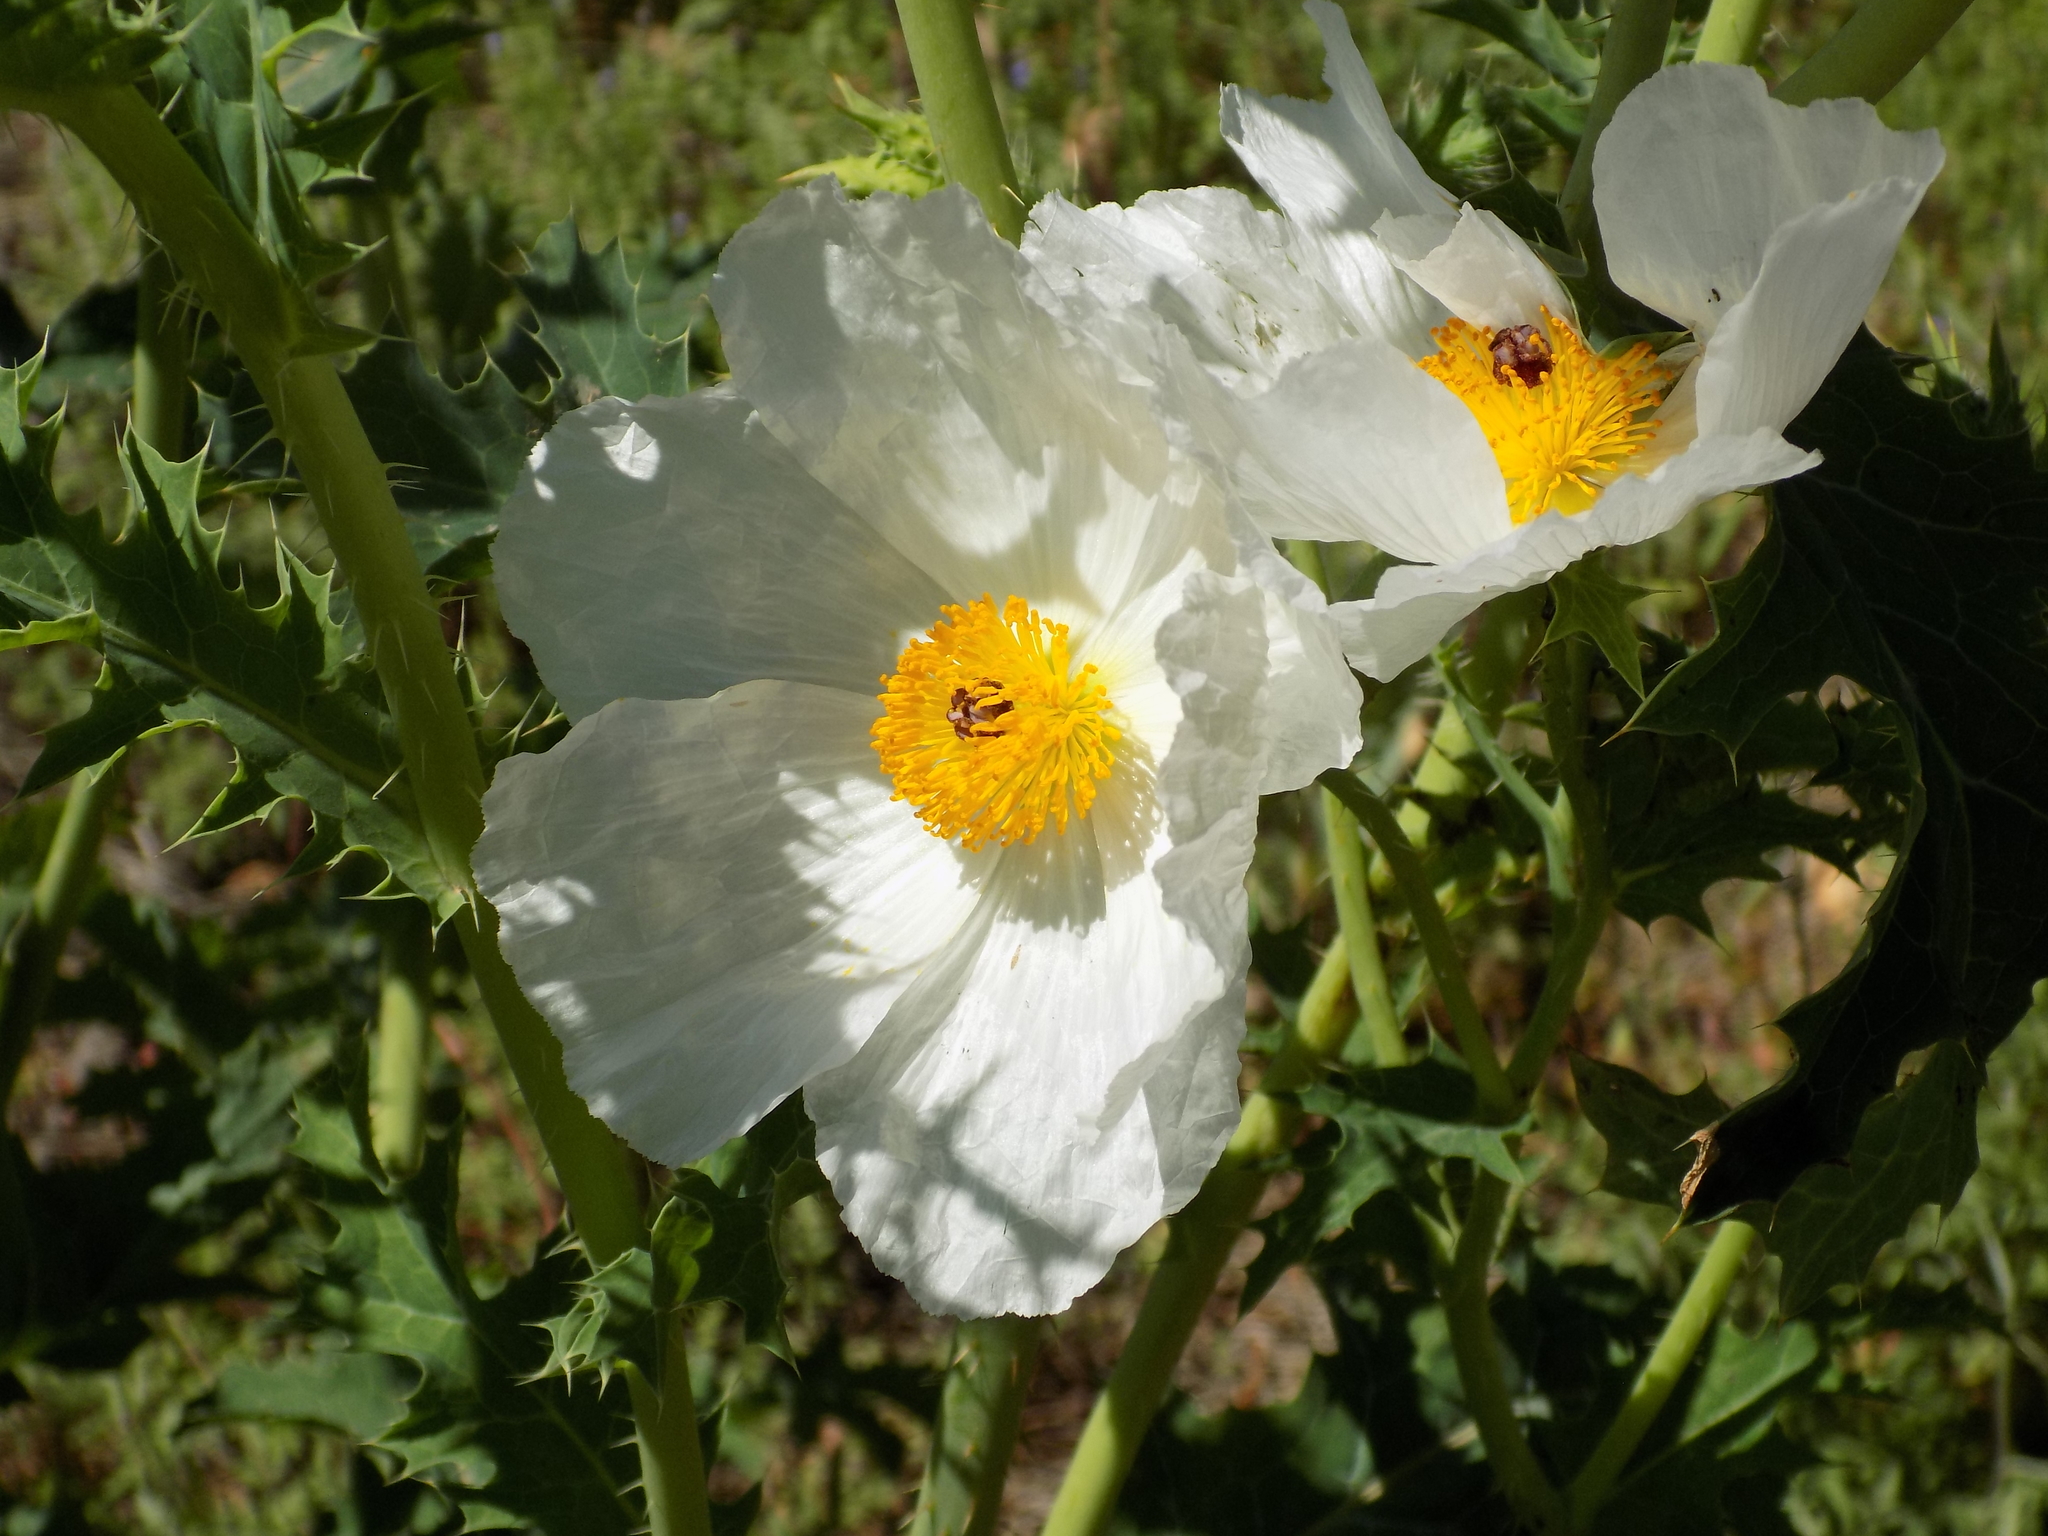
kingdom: Plantae
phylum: Tracheophyta
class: Magnoliopsida
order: Ranunculales
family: Papaveraceae
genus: Argemone
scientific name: Argemone albiflora
